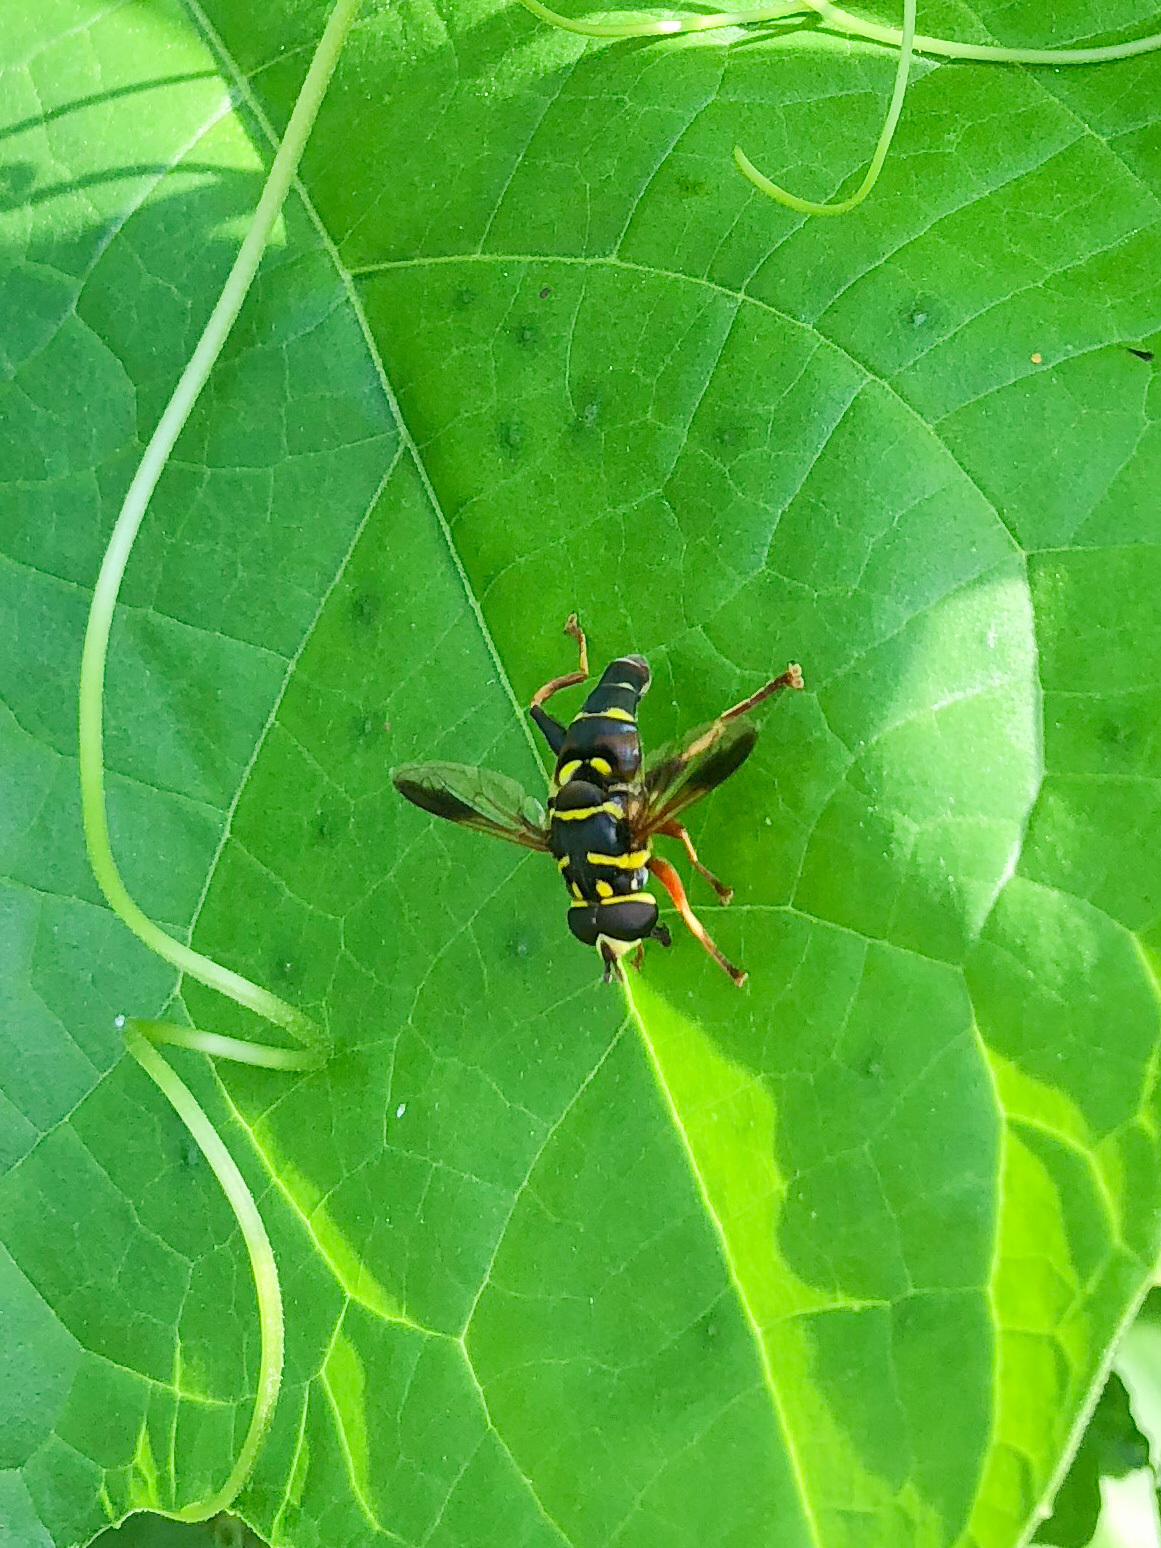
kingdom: Animalia
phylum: Arthropoda
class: Insecta
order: Diptera
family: Syrphidae
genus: Meromacrus
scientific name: Meromacrus acutus
